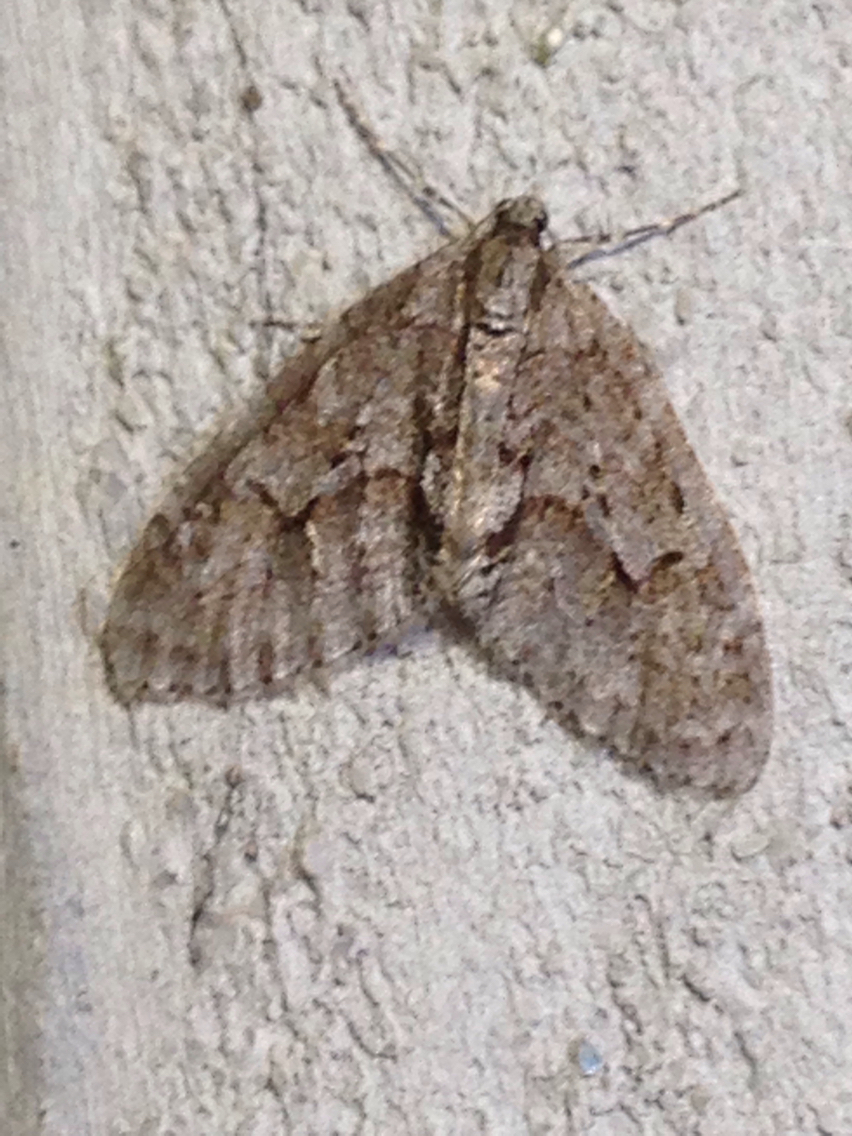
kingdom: Animalia
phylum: Arthropoda
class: Insecta
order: Lepidoptera
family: Geometridae
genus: Cladara
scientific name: Cladara limitaria
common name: Mottled gray carpet
